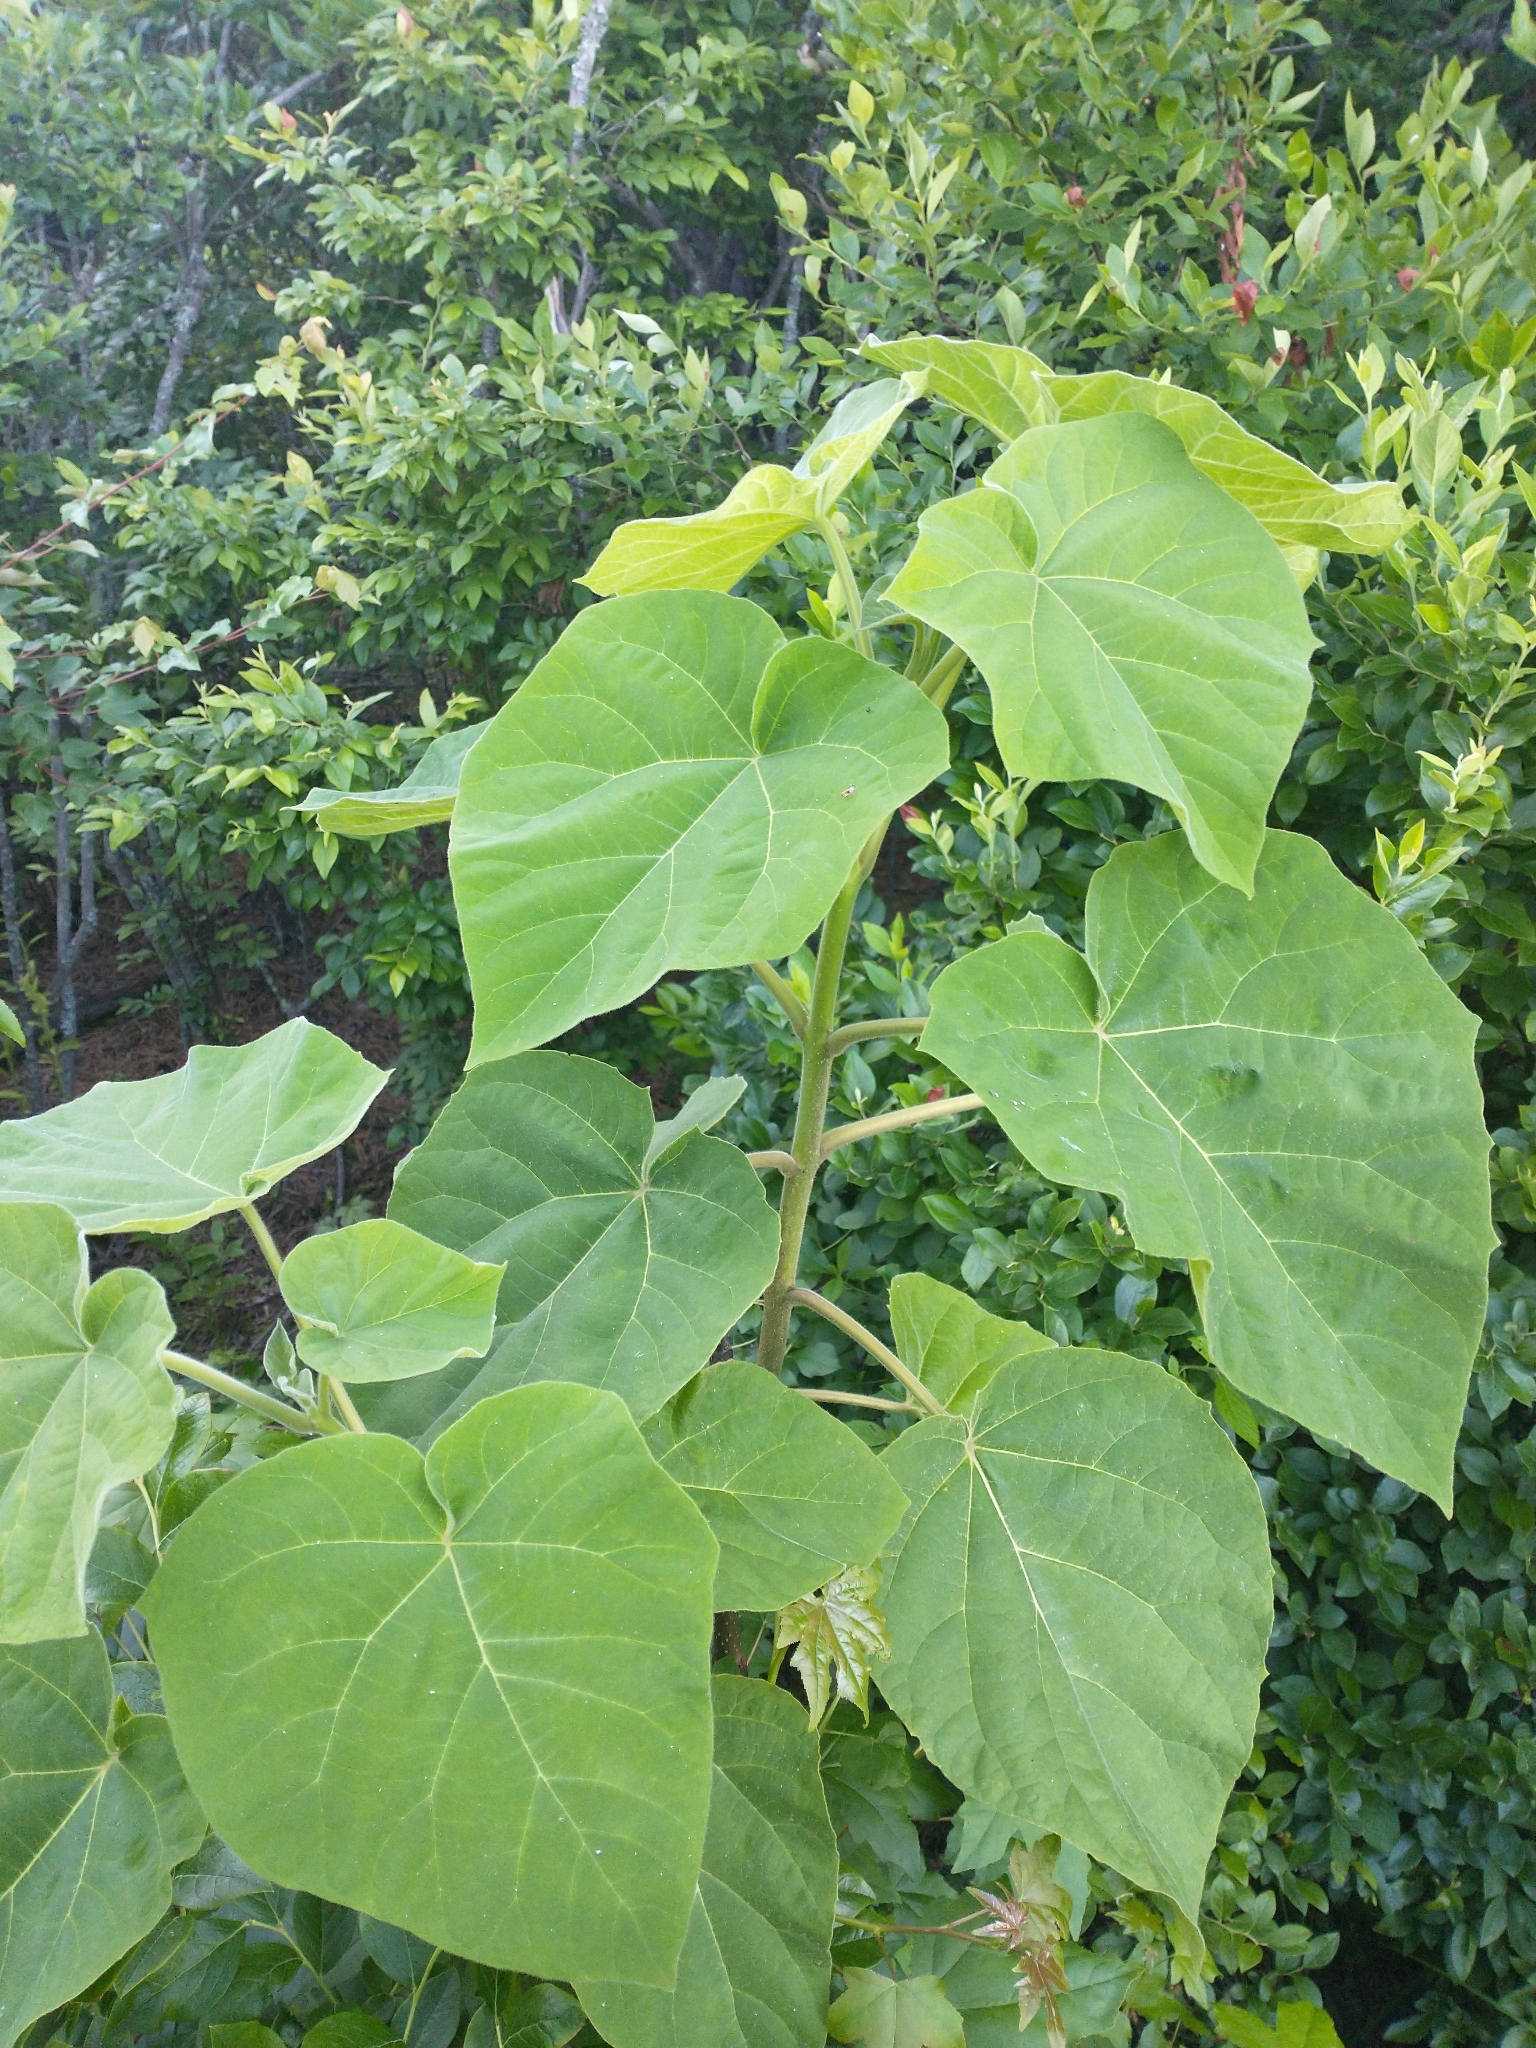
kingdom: Plantae
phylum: Tracheophyta
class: Magnoliopsida
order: Lamiales
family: Paulowniaceae
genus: Paulownia
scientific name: Paulownia tomentosa
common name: Foxglove-tree
